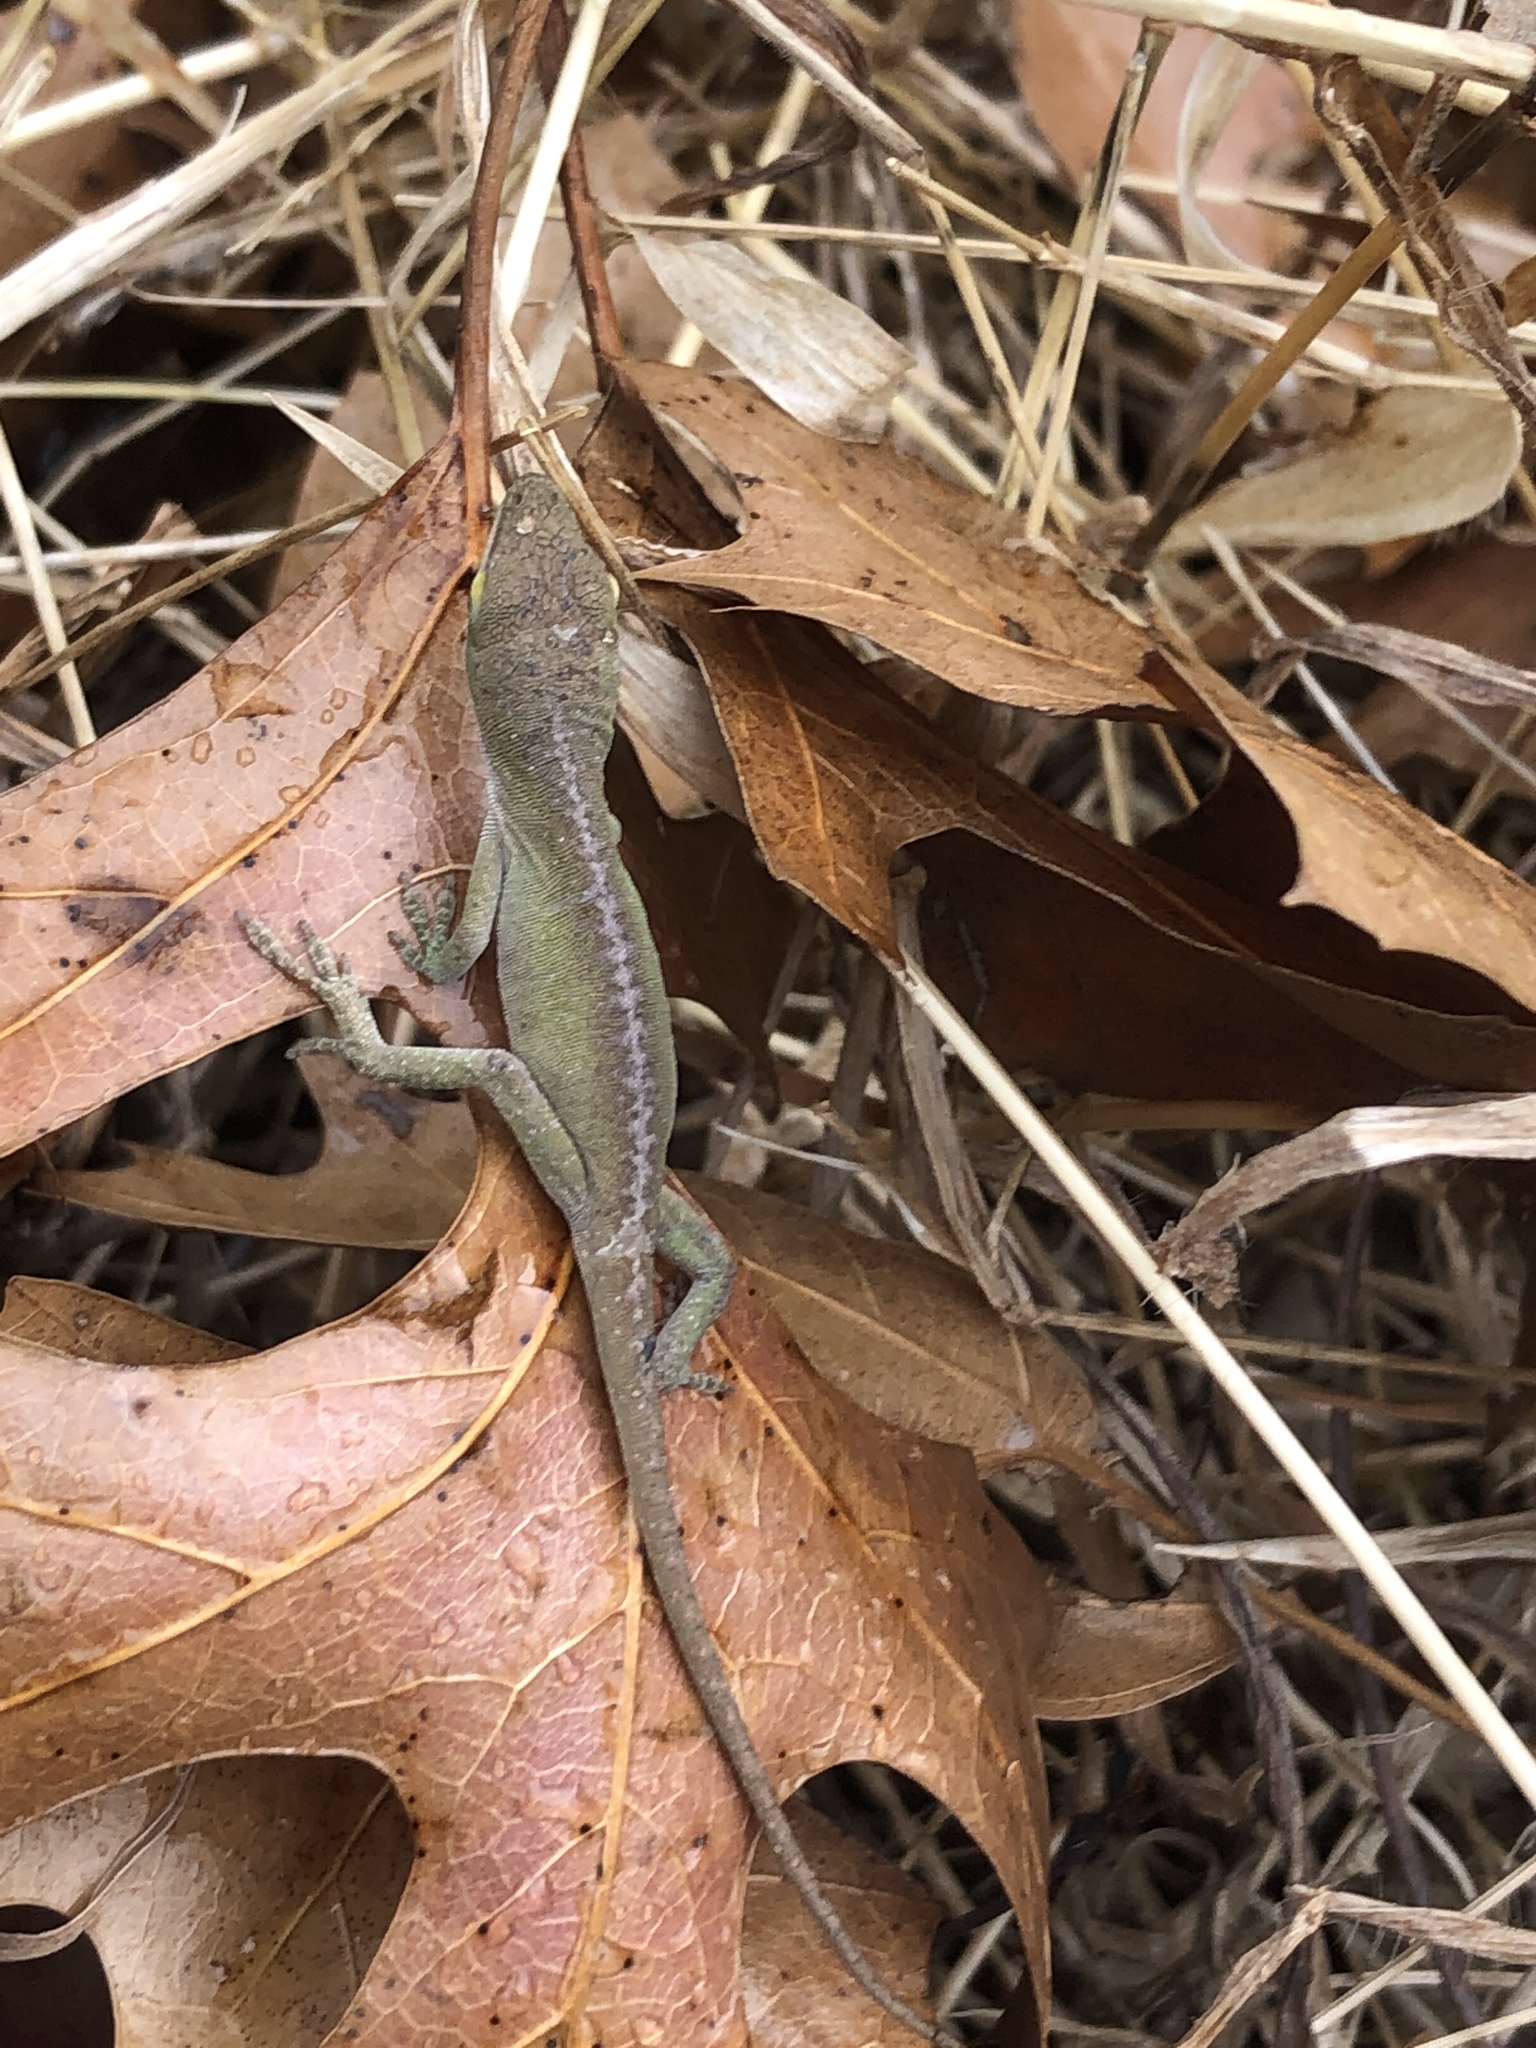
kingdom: Animalia
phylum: Chordata
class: Squamata
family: Dactyloidae
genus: Anolis
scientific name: Anolis carolinensis
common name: Green anole
